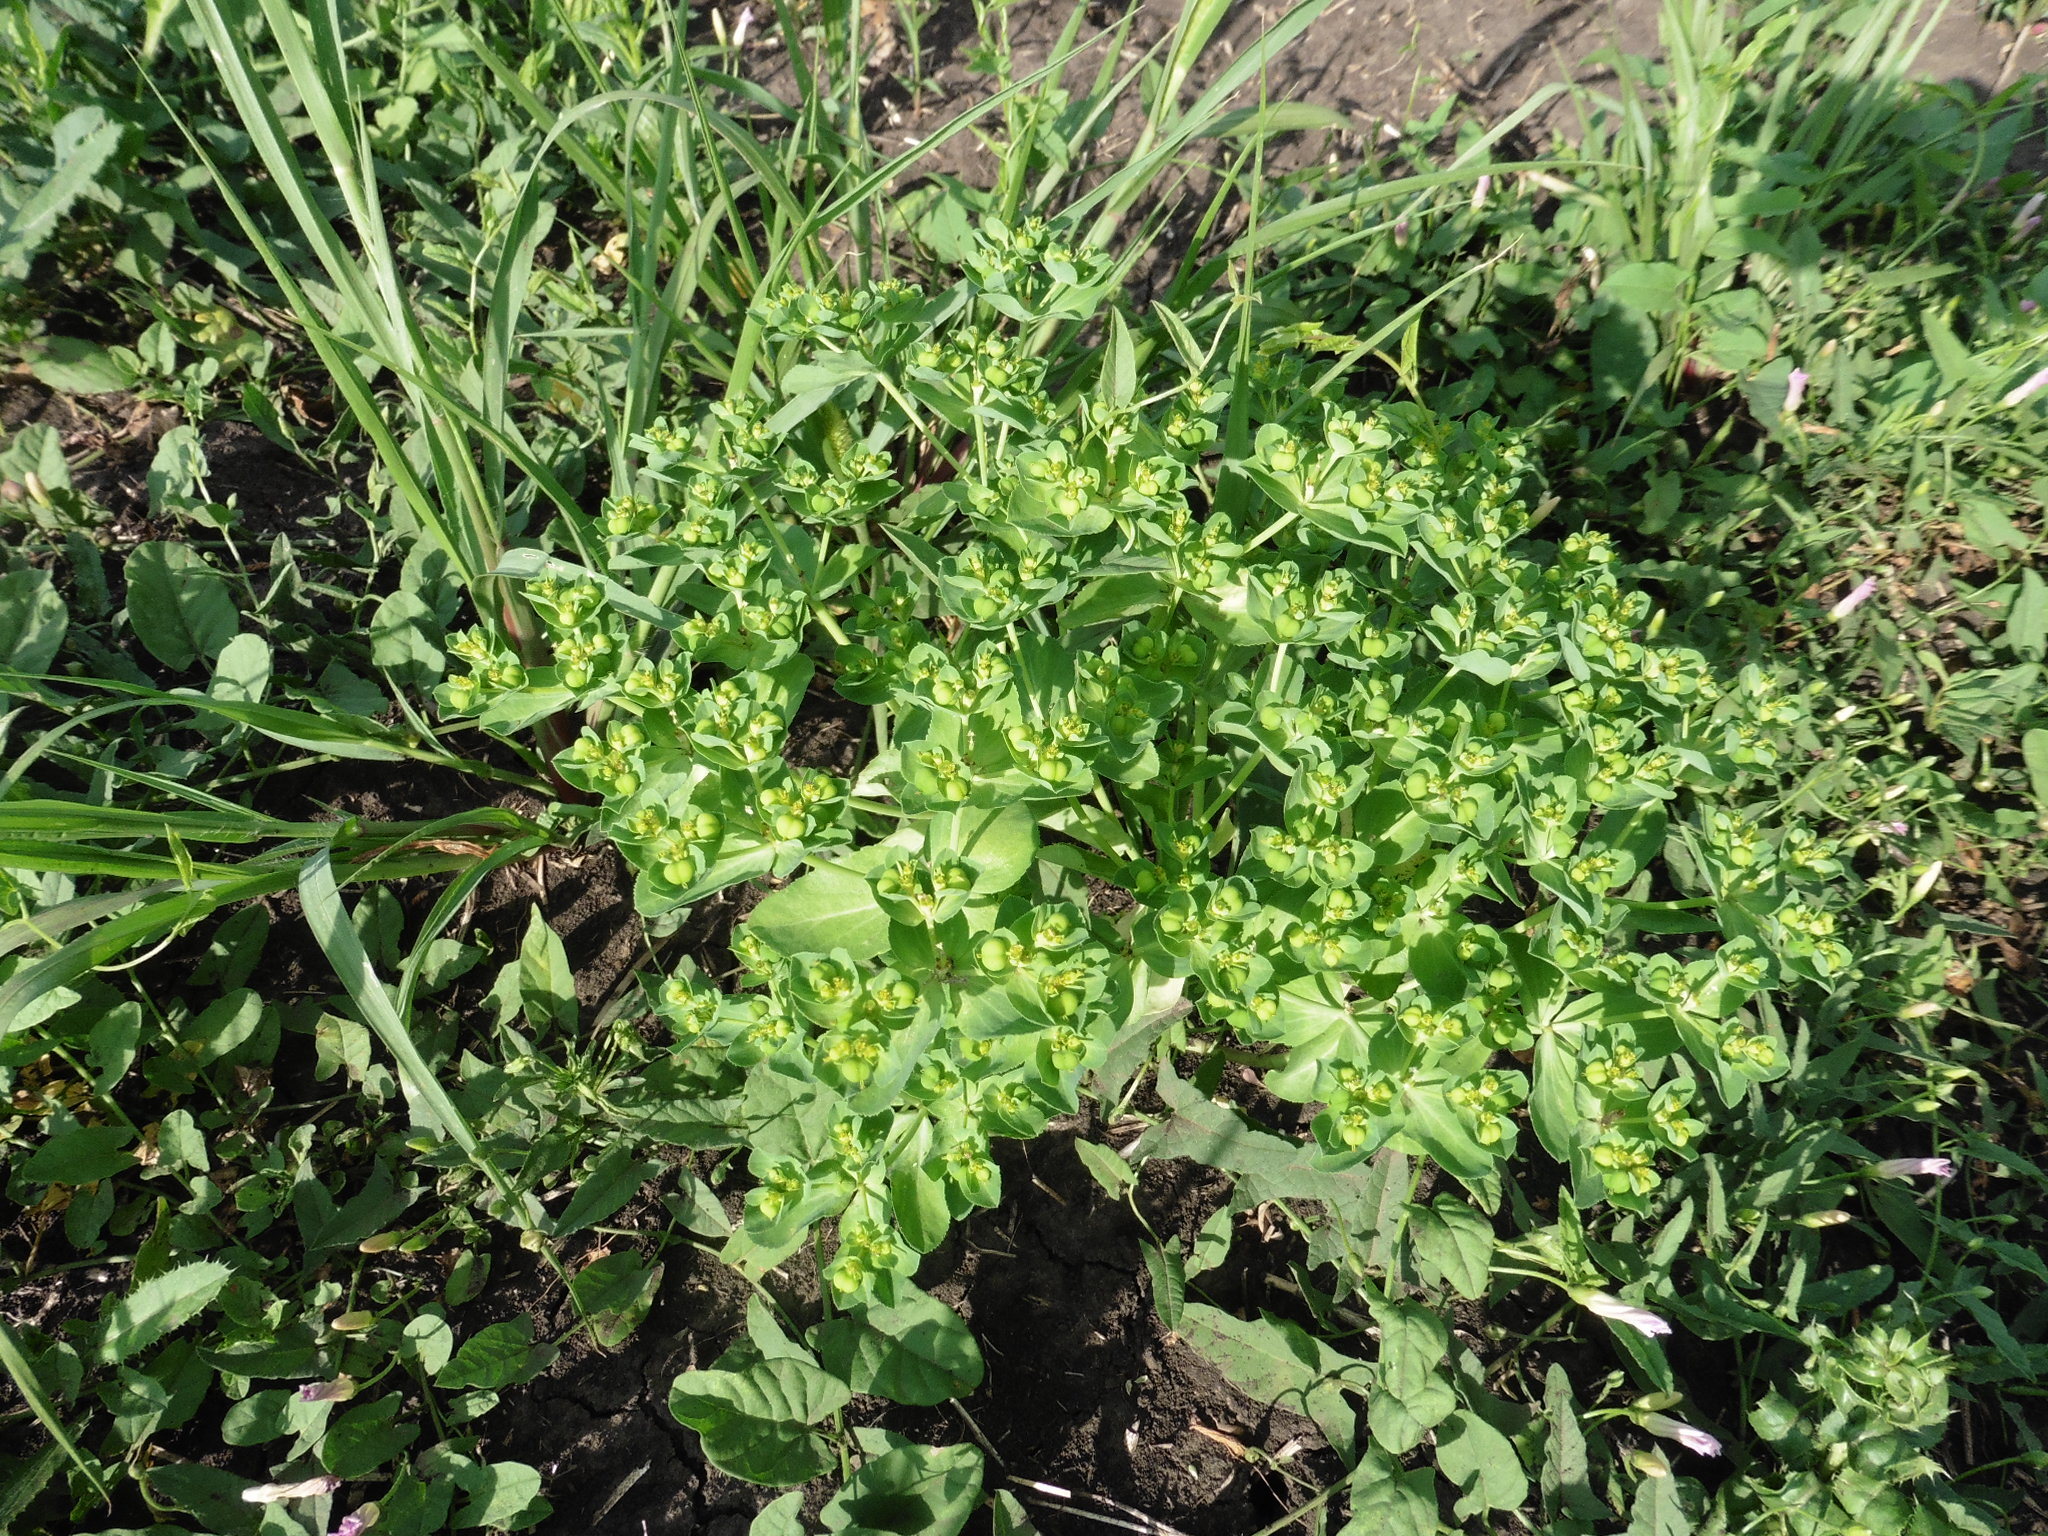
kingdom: Plantae
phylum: Tracheophyta
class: Magnoliopsida
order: Malpighiales
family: Euphorbiaceae
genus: Euphorbia
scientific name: Euphorbia helioscopia
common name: Sun spurge
